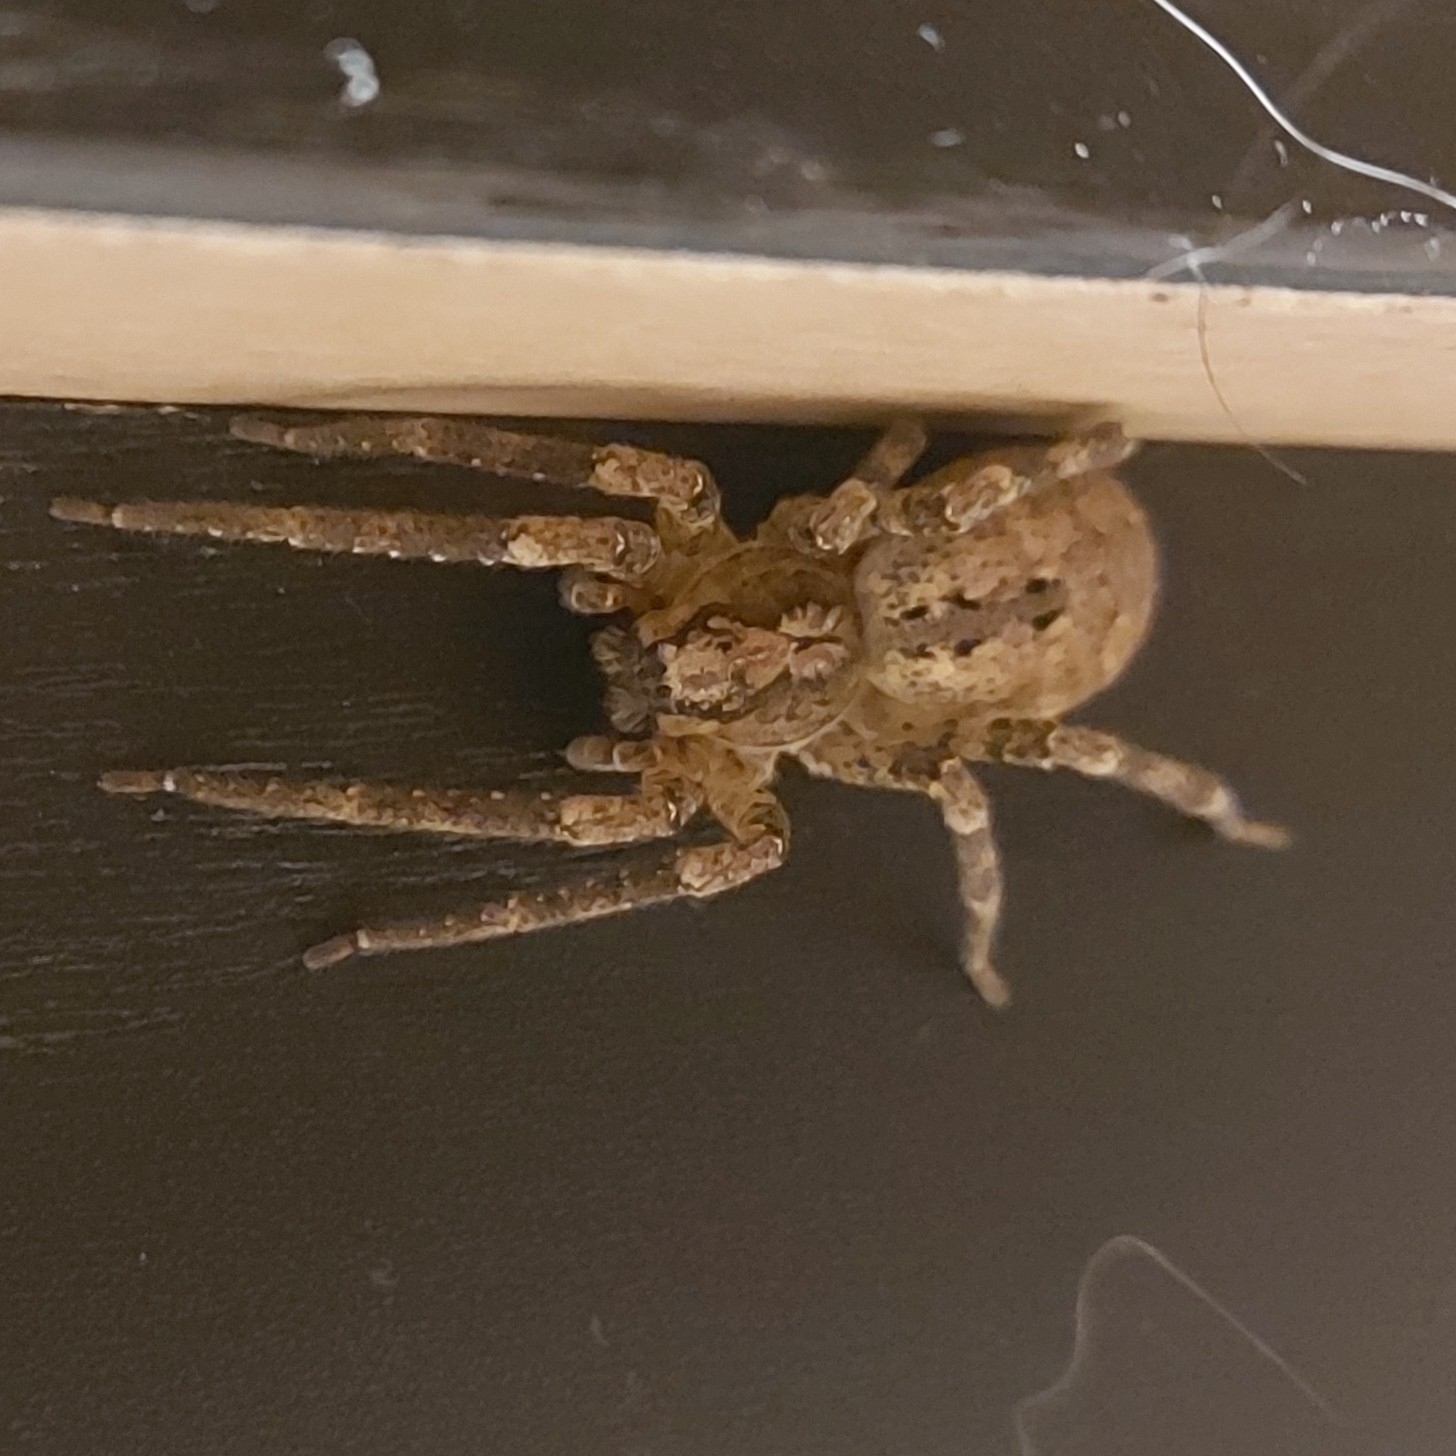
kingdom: Animalia
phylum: Arthropoda
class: Arachnida
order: Araneae
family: Zoropsidae
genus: Zoropsis
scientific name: Zoropsis spinimana
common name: Zoropsid spider
